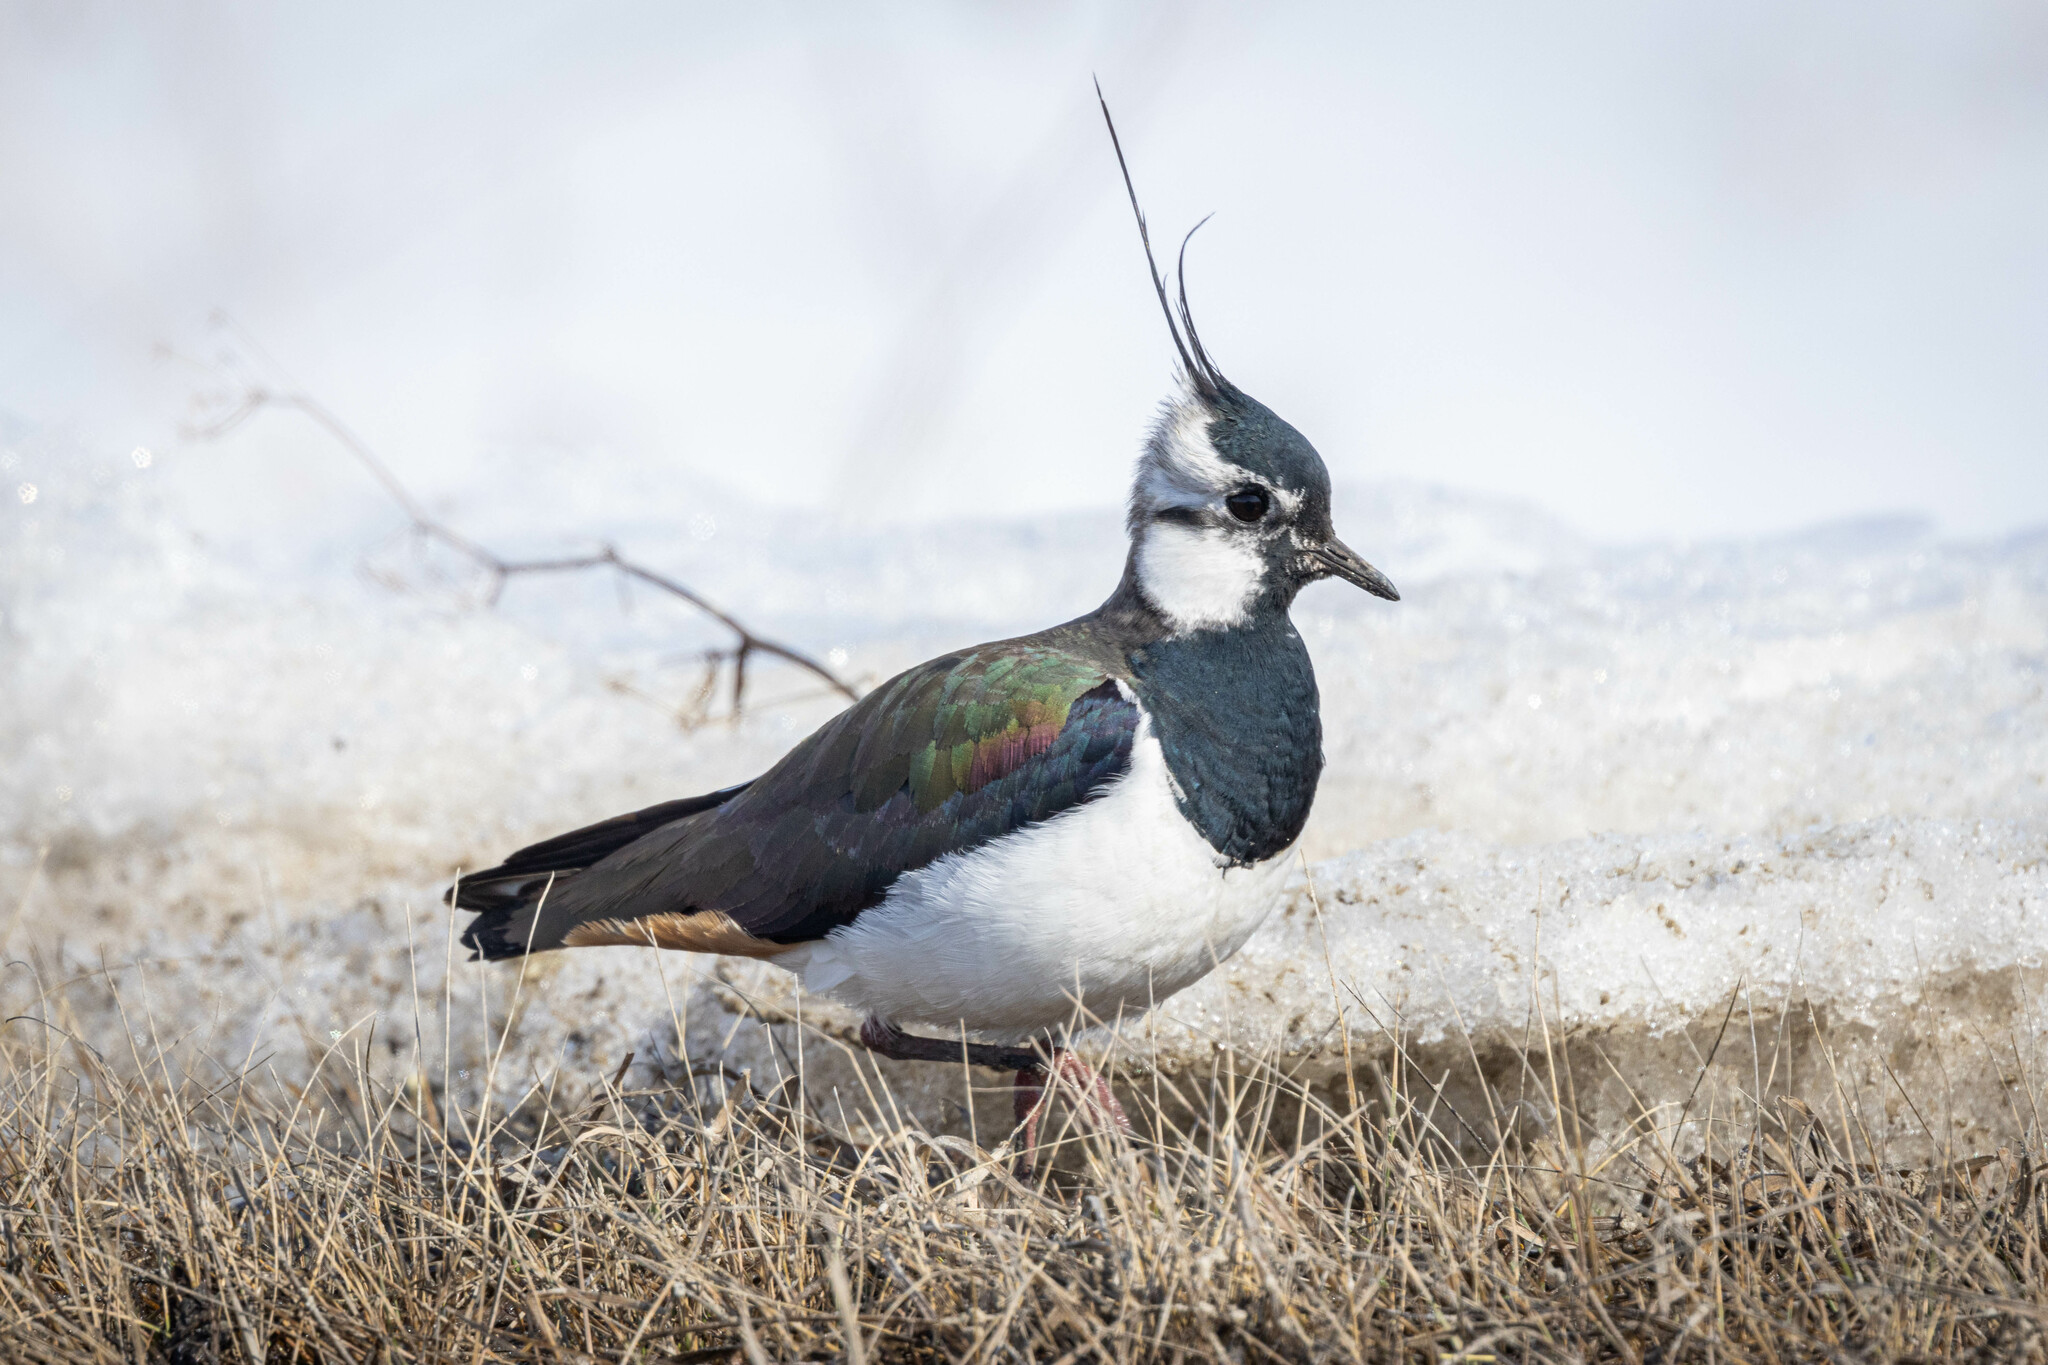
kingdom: Animalia
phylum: Chordata
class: Aves
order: Charadriiformes
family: Charadriidae
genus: Vanellus
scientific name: Vanellus vanellus
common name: Northern lapwing
